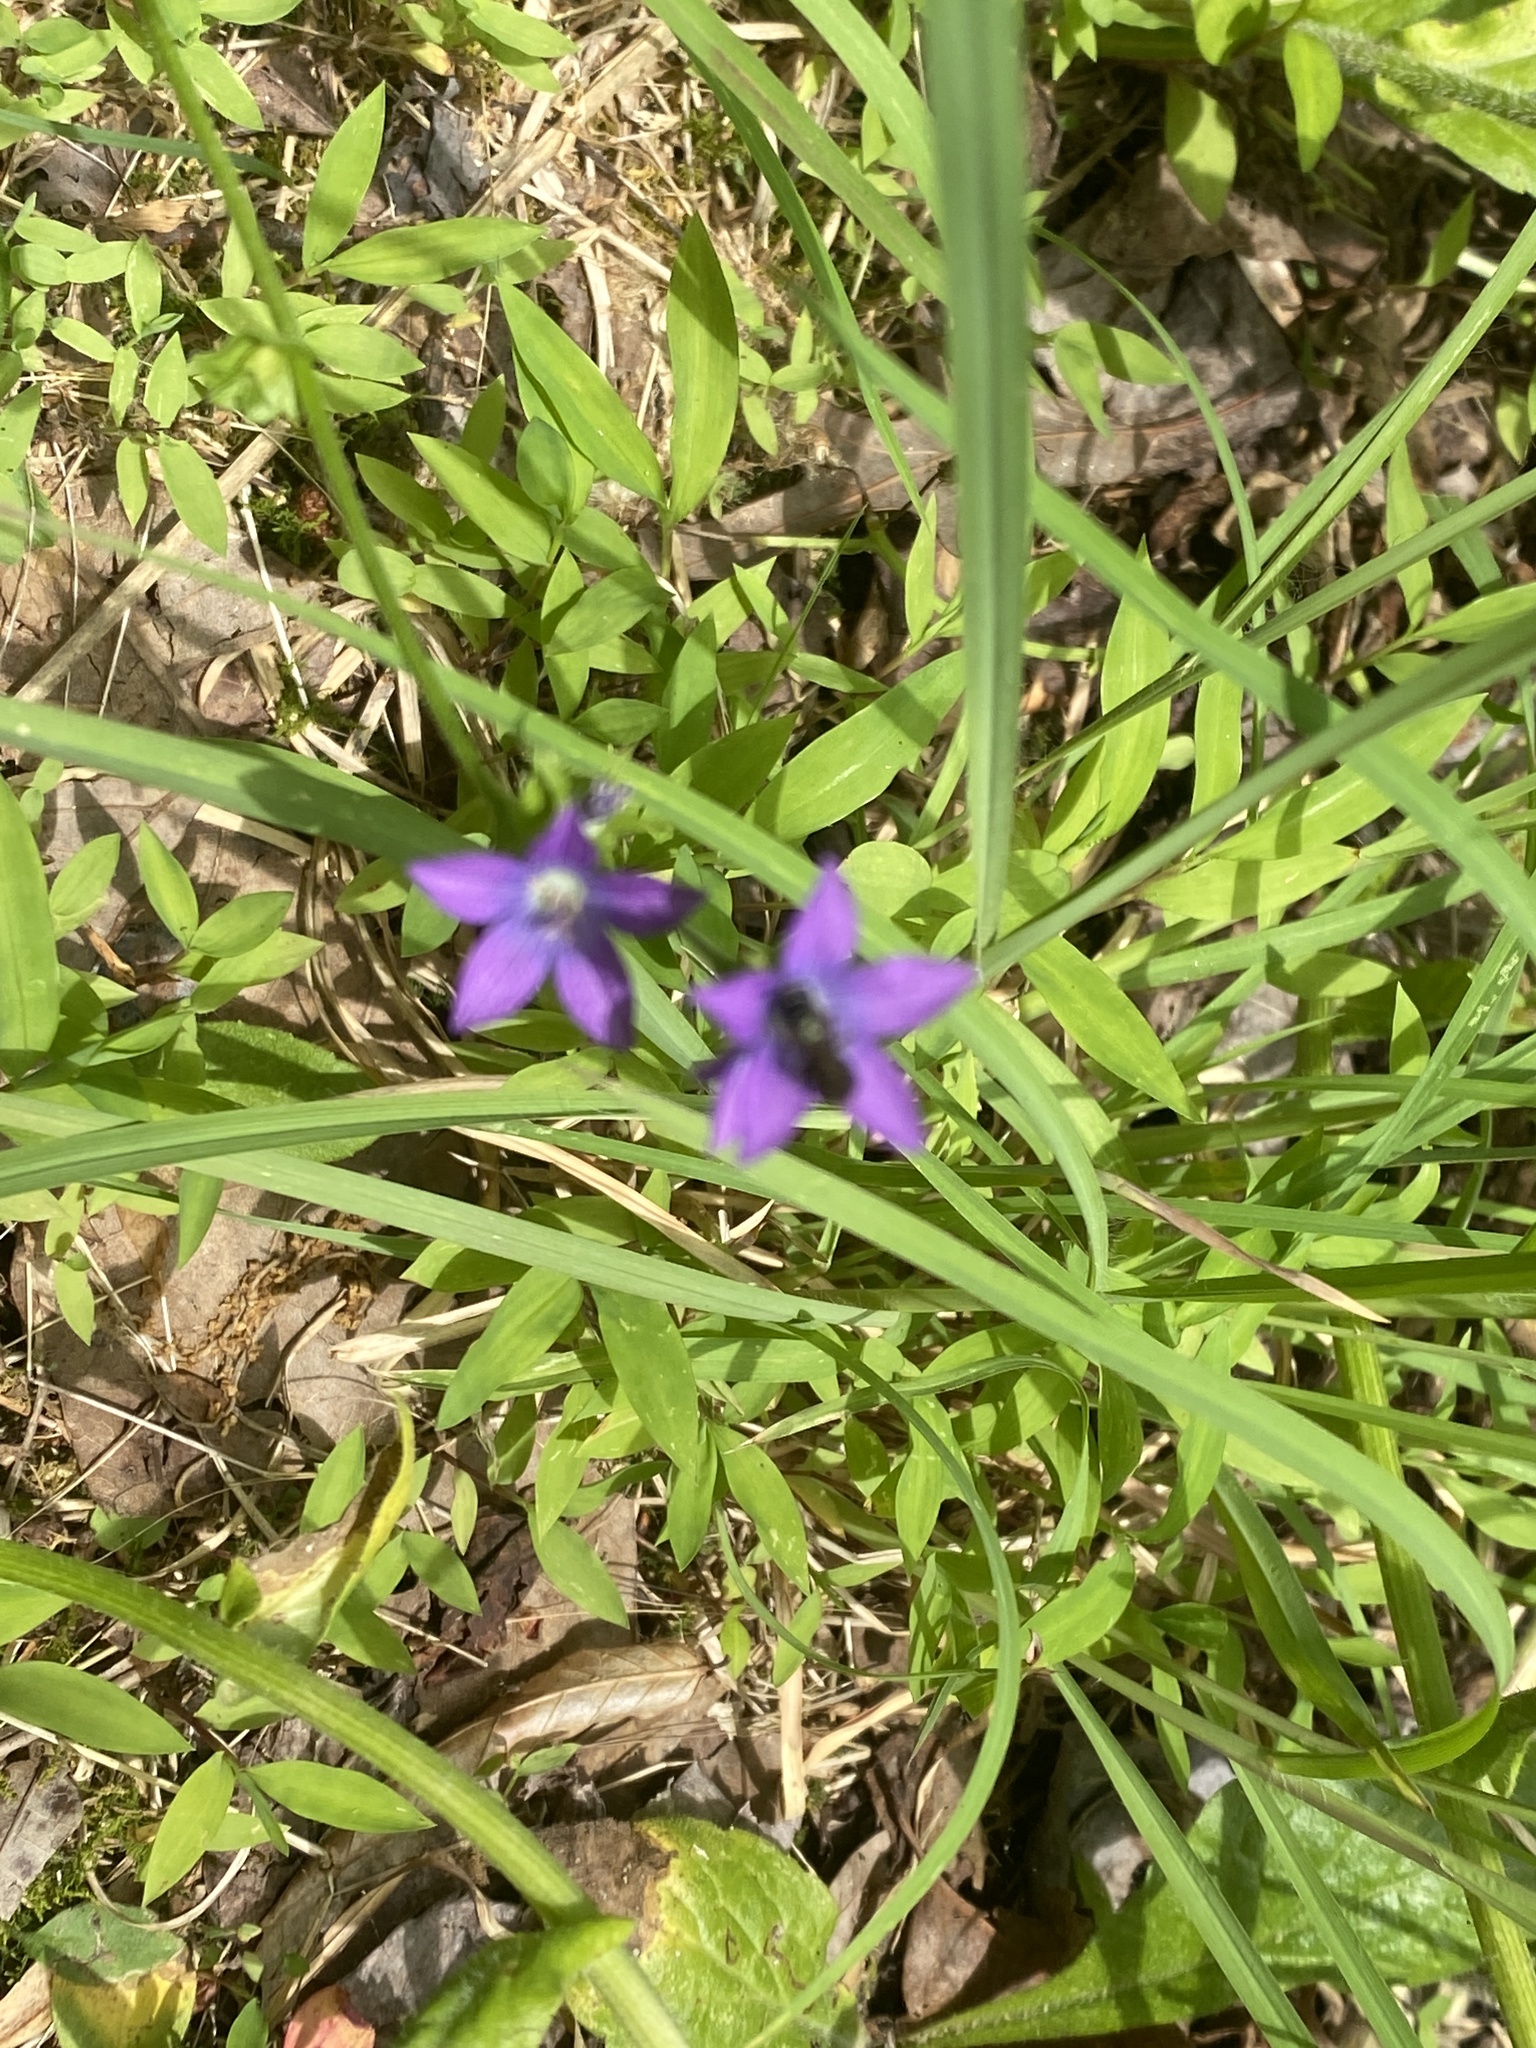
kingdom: Plantae
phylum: Tracheophyta
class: Magnoliopsida
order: Asterales
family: Campanulaceae
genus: Triodanis
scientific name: Triodanis perfoliata
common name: Clasping venus' looking-glass
